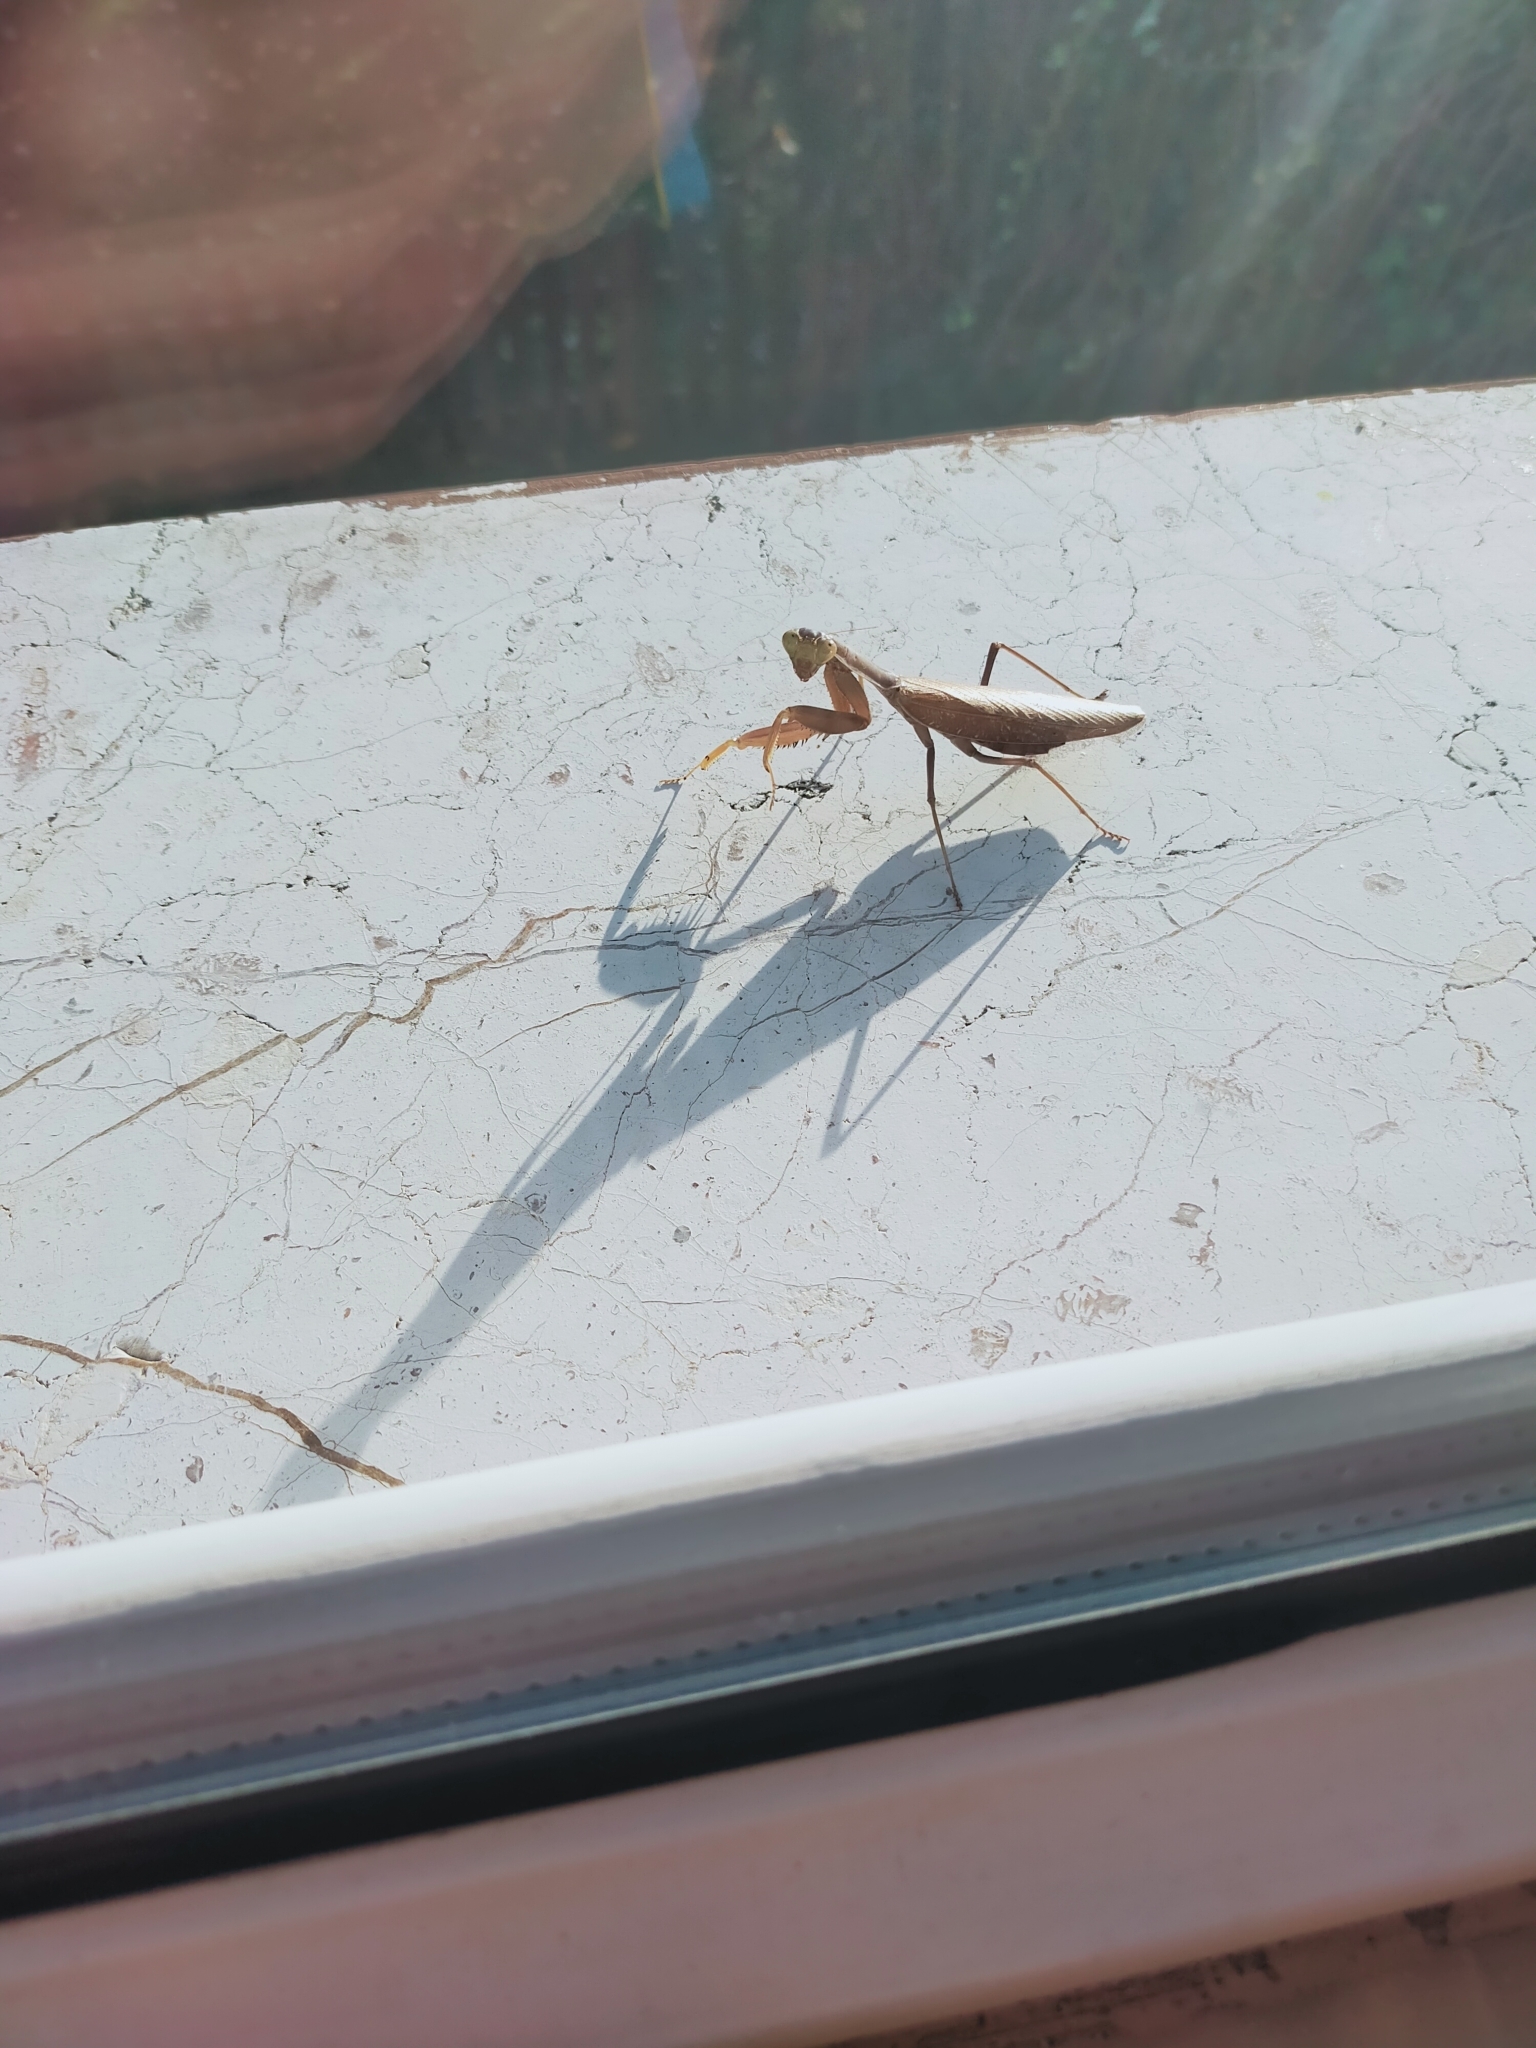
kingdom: Animalia
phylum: Arthropoda
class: Insecta
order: Mantodea
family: Mantidae
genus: Hierodula
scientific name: Hierodula transcaucasica
